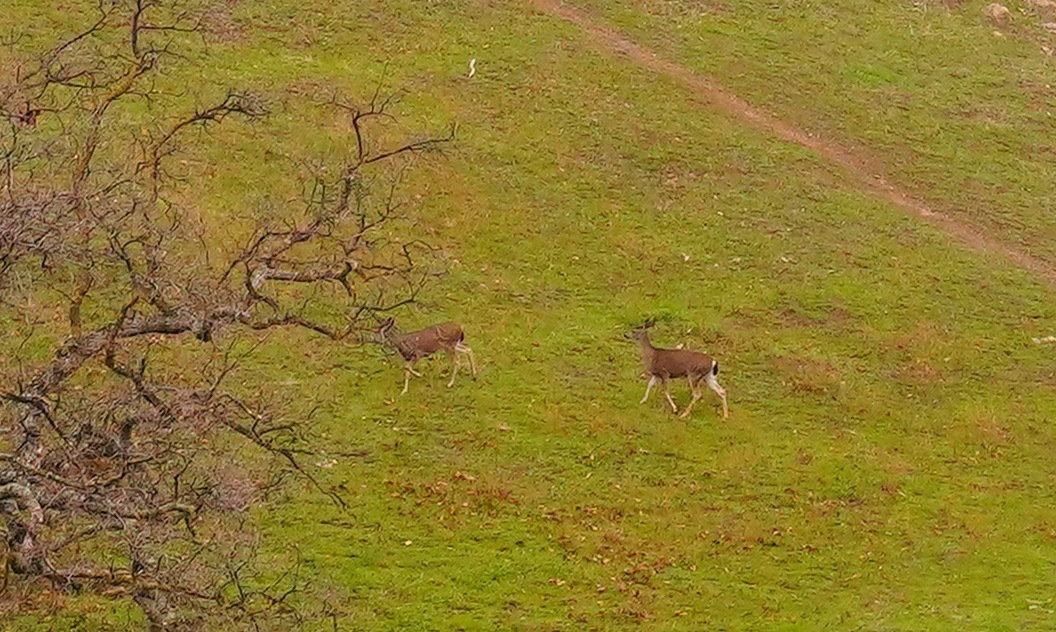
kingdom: Animalia
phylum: Chordata
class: Mammalia
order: Artiodactyla
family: Cervidae
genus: Odocoileus
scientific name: Odocoileus hemionus
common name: Mule deer
